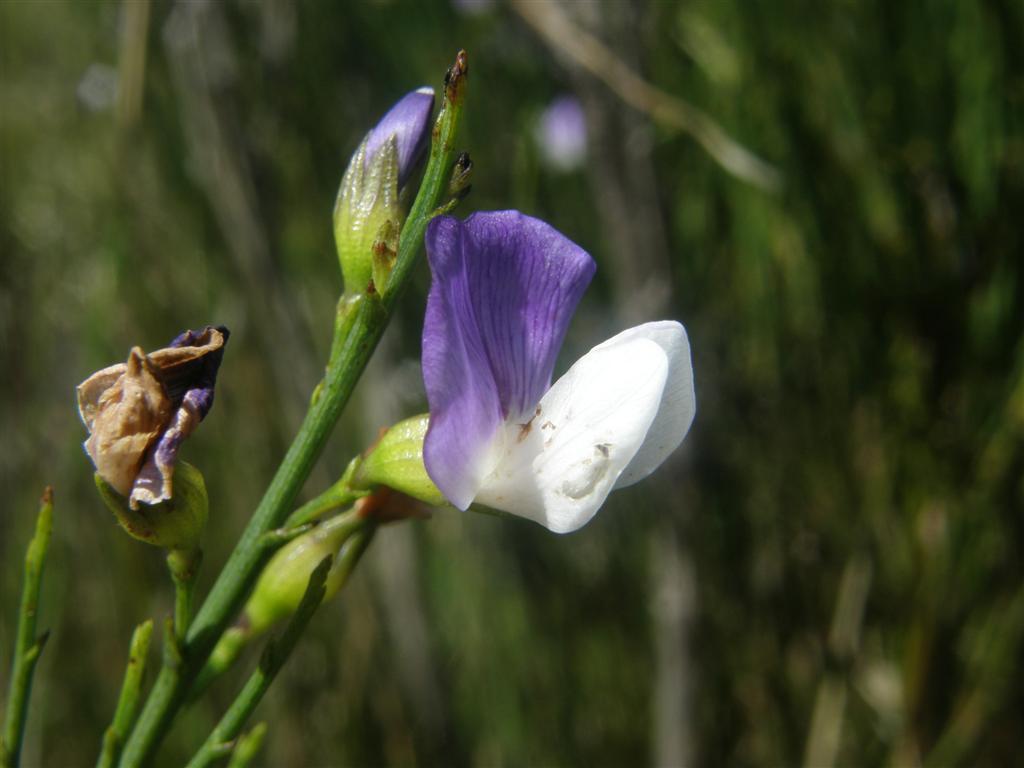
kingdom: Plantae
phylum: Tracheophyta
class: Magnoliopsida
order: Fabales
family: Fabaceae
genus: Psoralea
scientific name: Psoralea usitata
